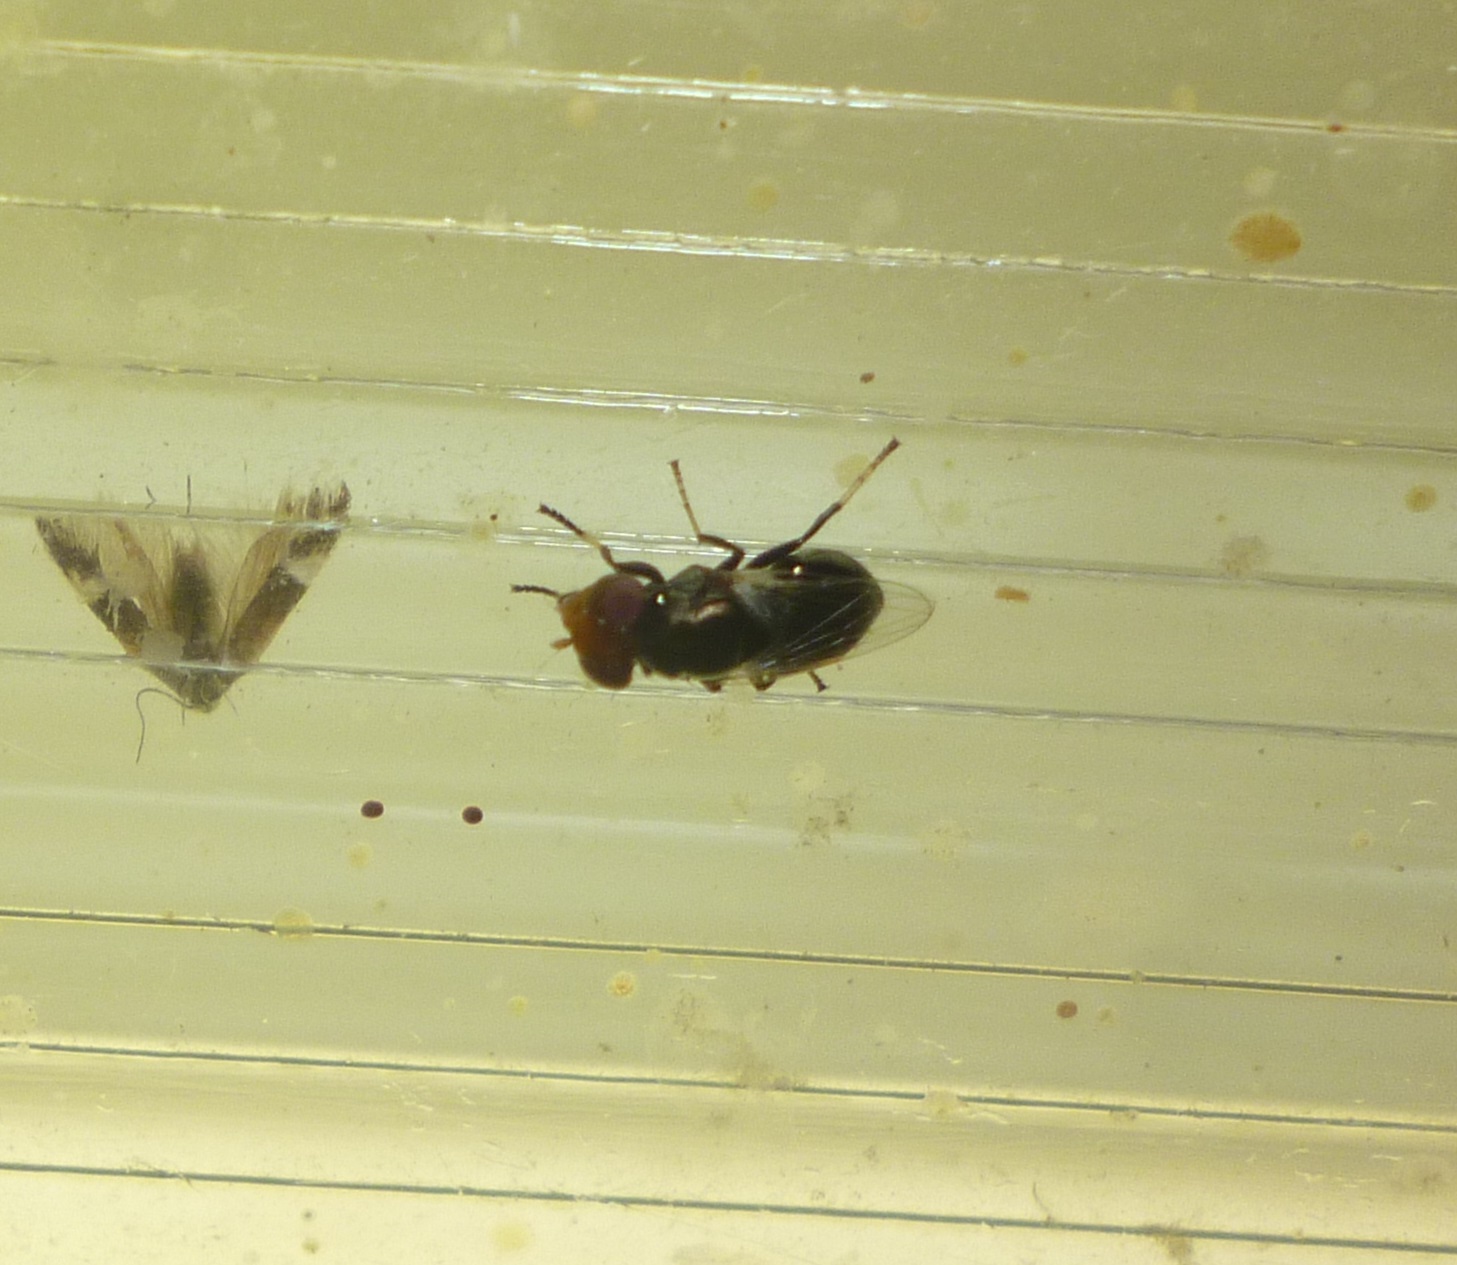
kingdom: Animalia
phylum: Arthropoda
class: Insecta
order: Diptera
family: Ulidiidae
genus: Physiphora
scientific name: Physiphora alceae
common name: Picture-winged fly
